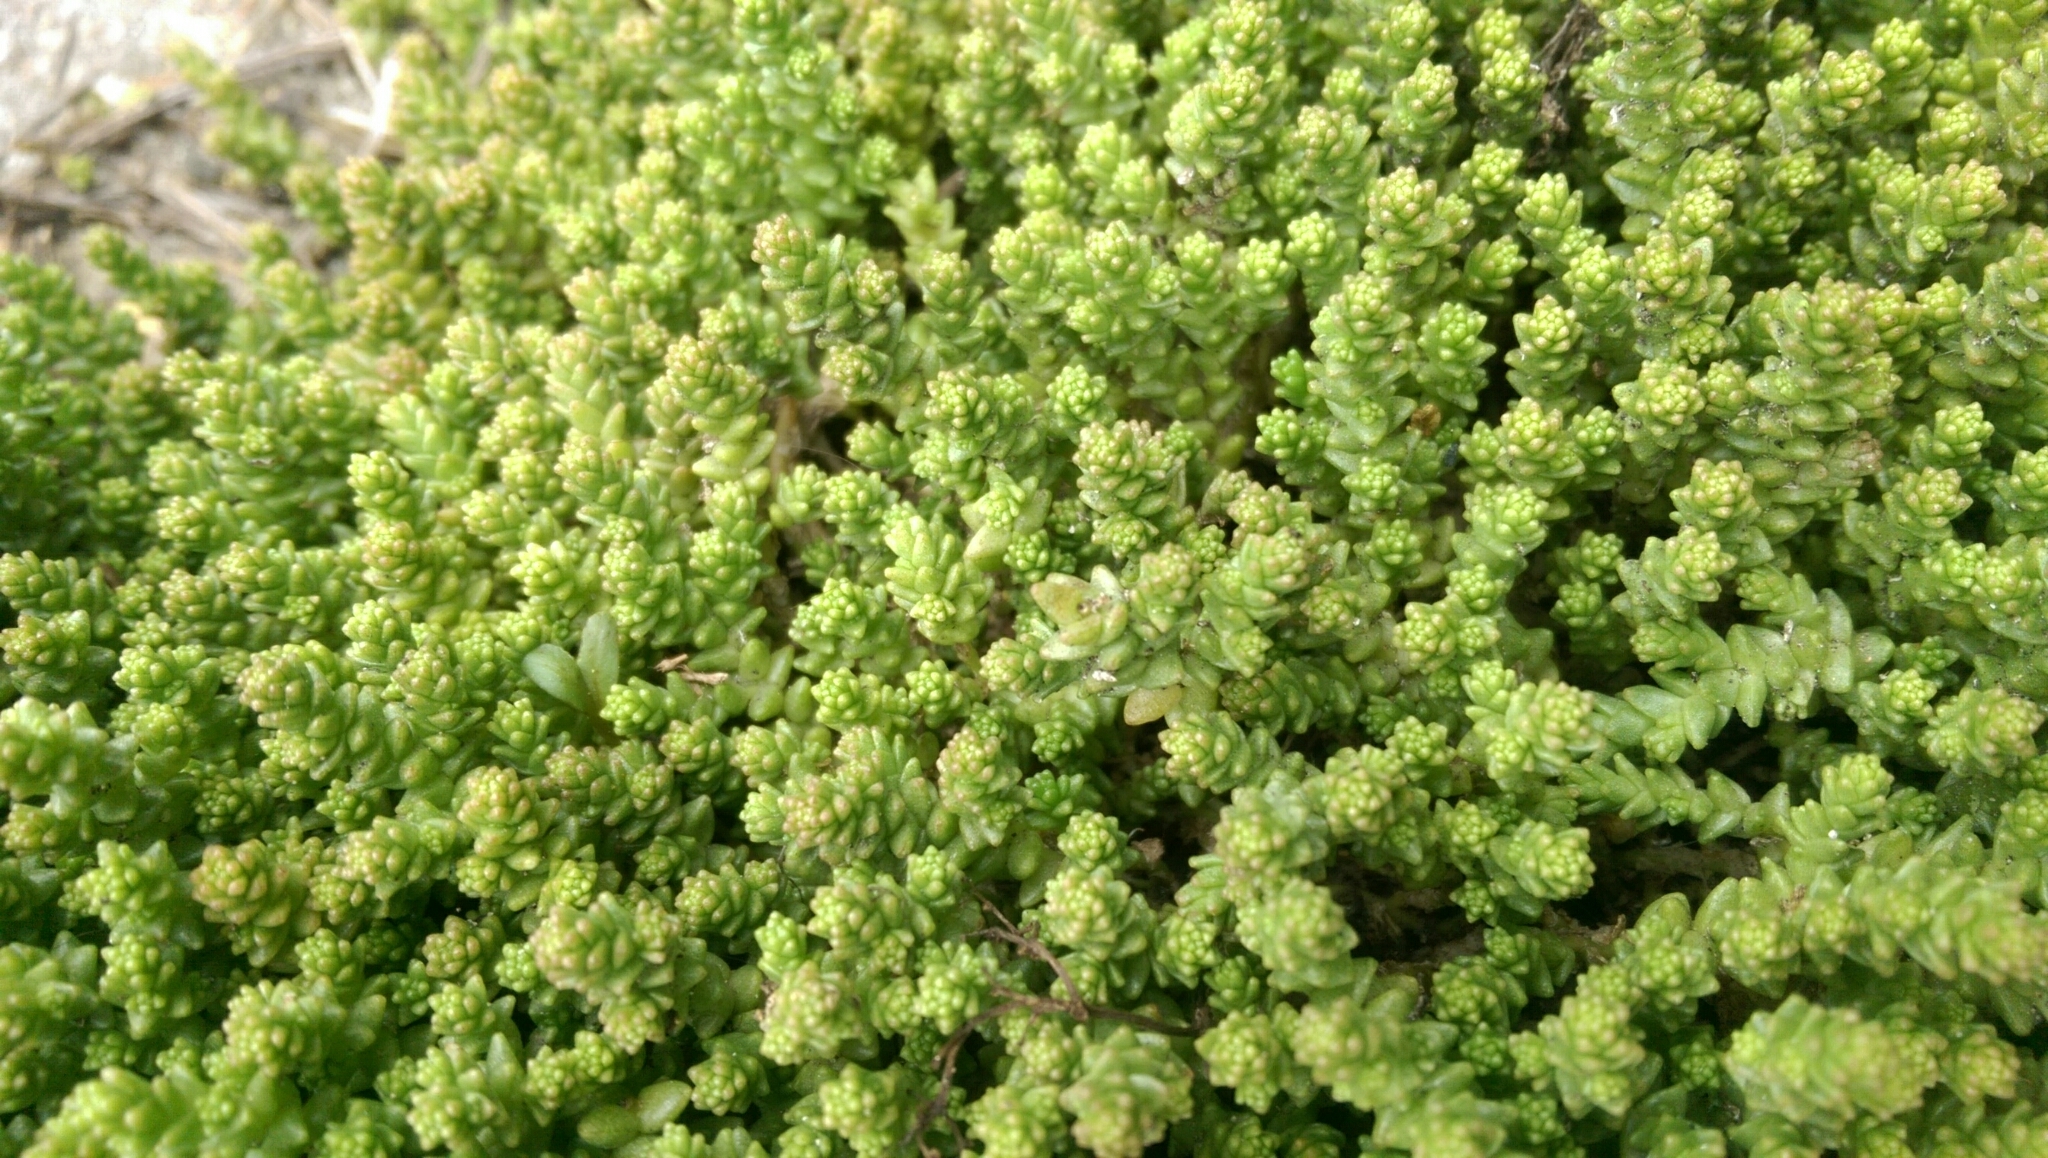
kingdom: Plantae
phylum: Tracheophyta
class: Magnoliopsida
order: Saxifragales
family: Crassulaceae
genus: Sedum
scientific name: Sedum acre
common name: Biting stonecrop
